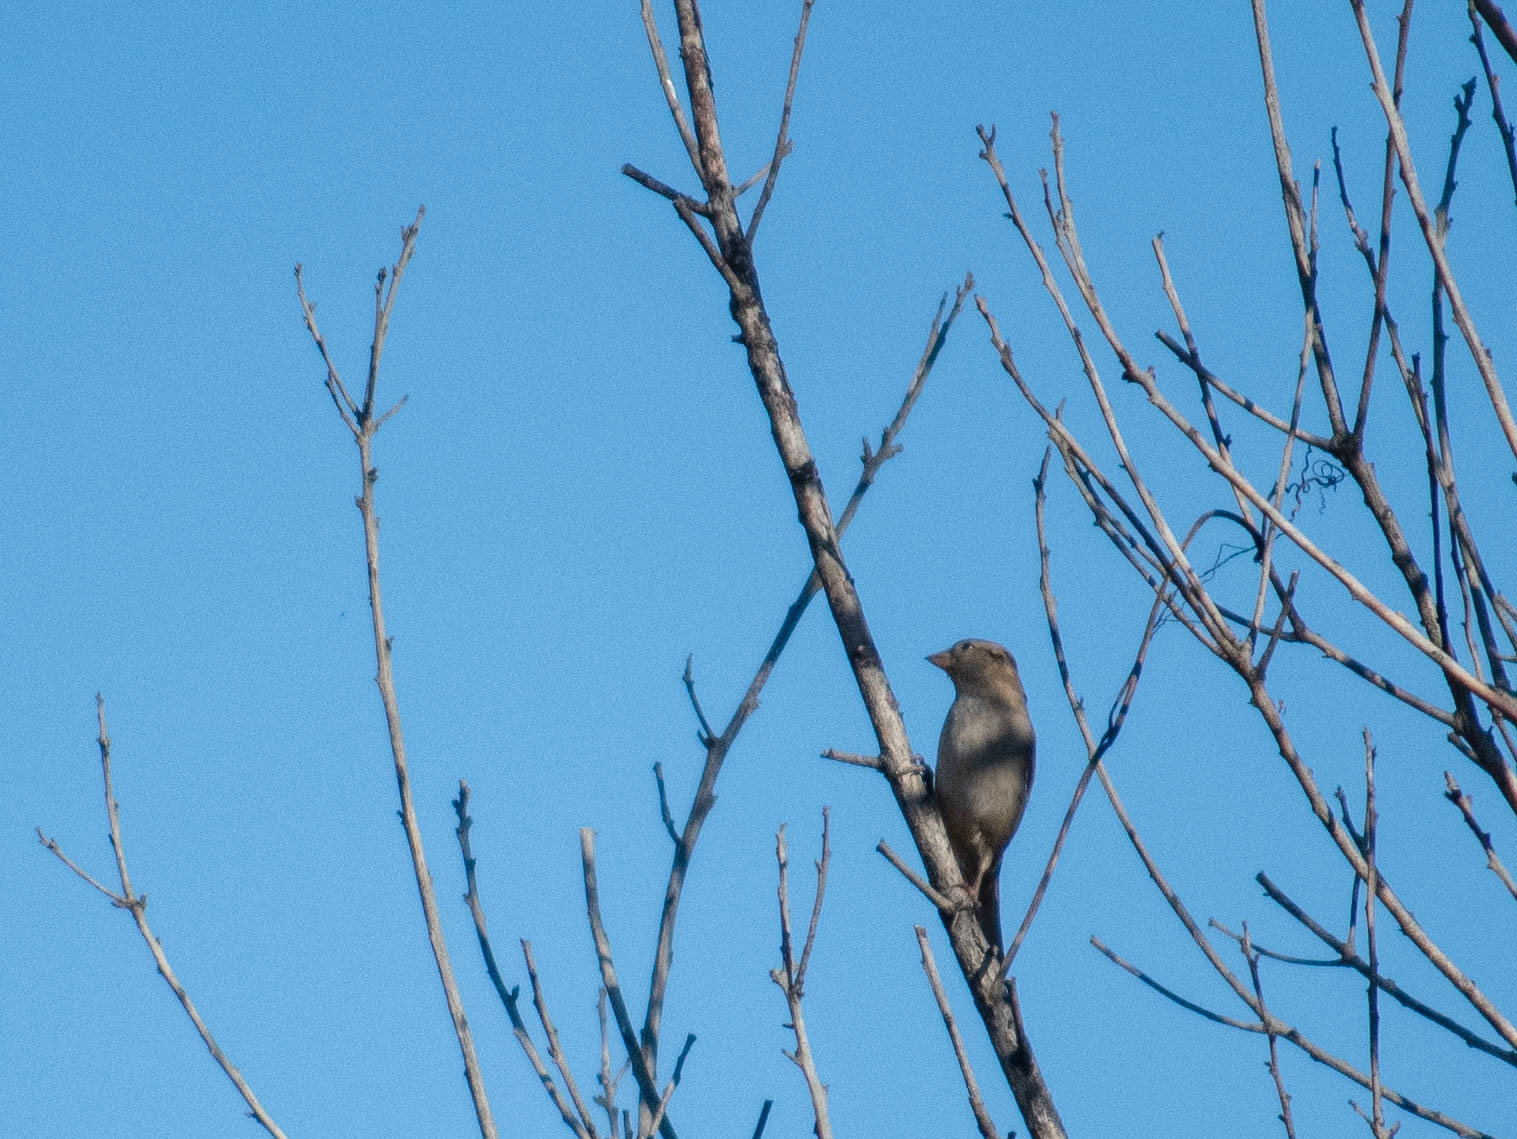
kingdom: Animalia
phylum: Chordata
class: Aves
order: Passeriformes
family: Passeridae
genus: Passer
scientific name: Passer domesticus
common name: House sparrow
